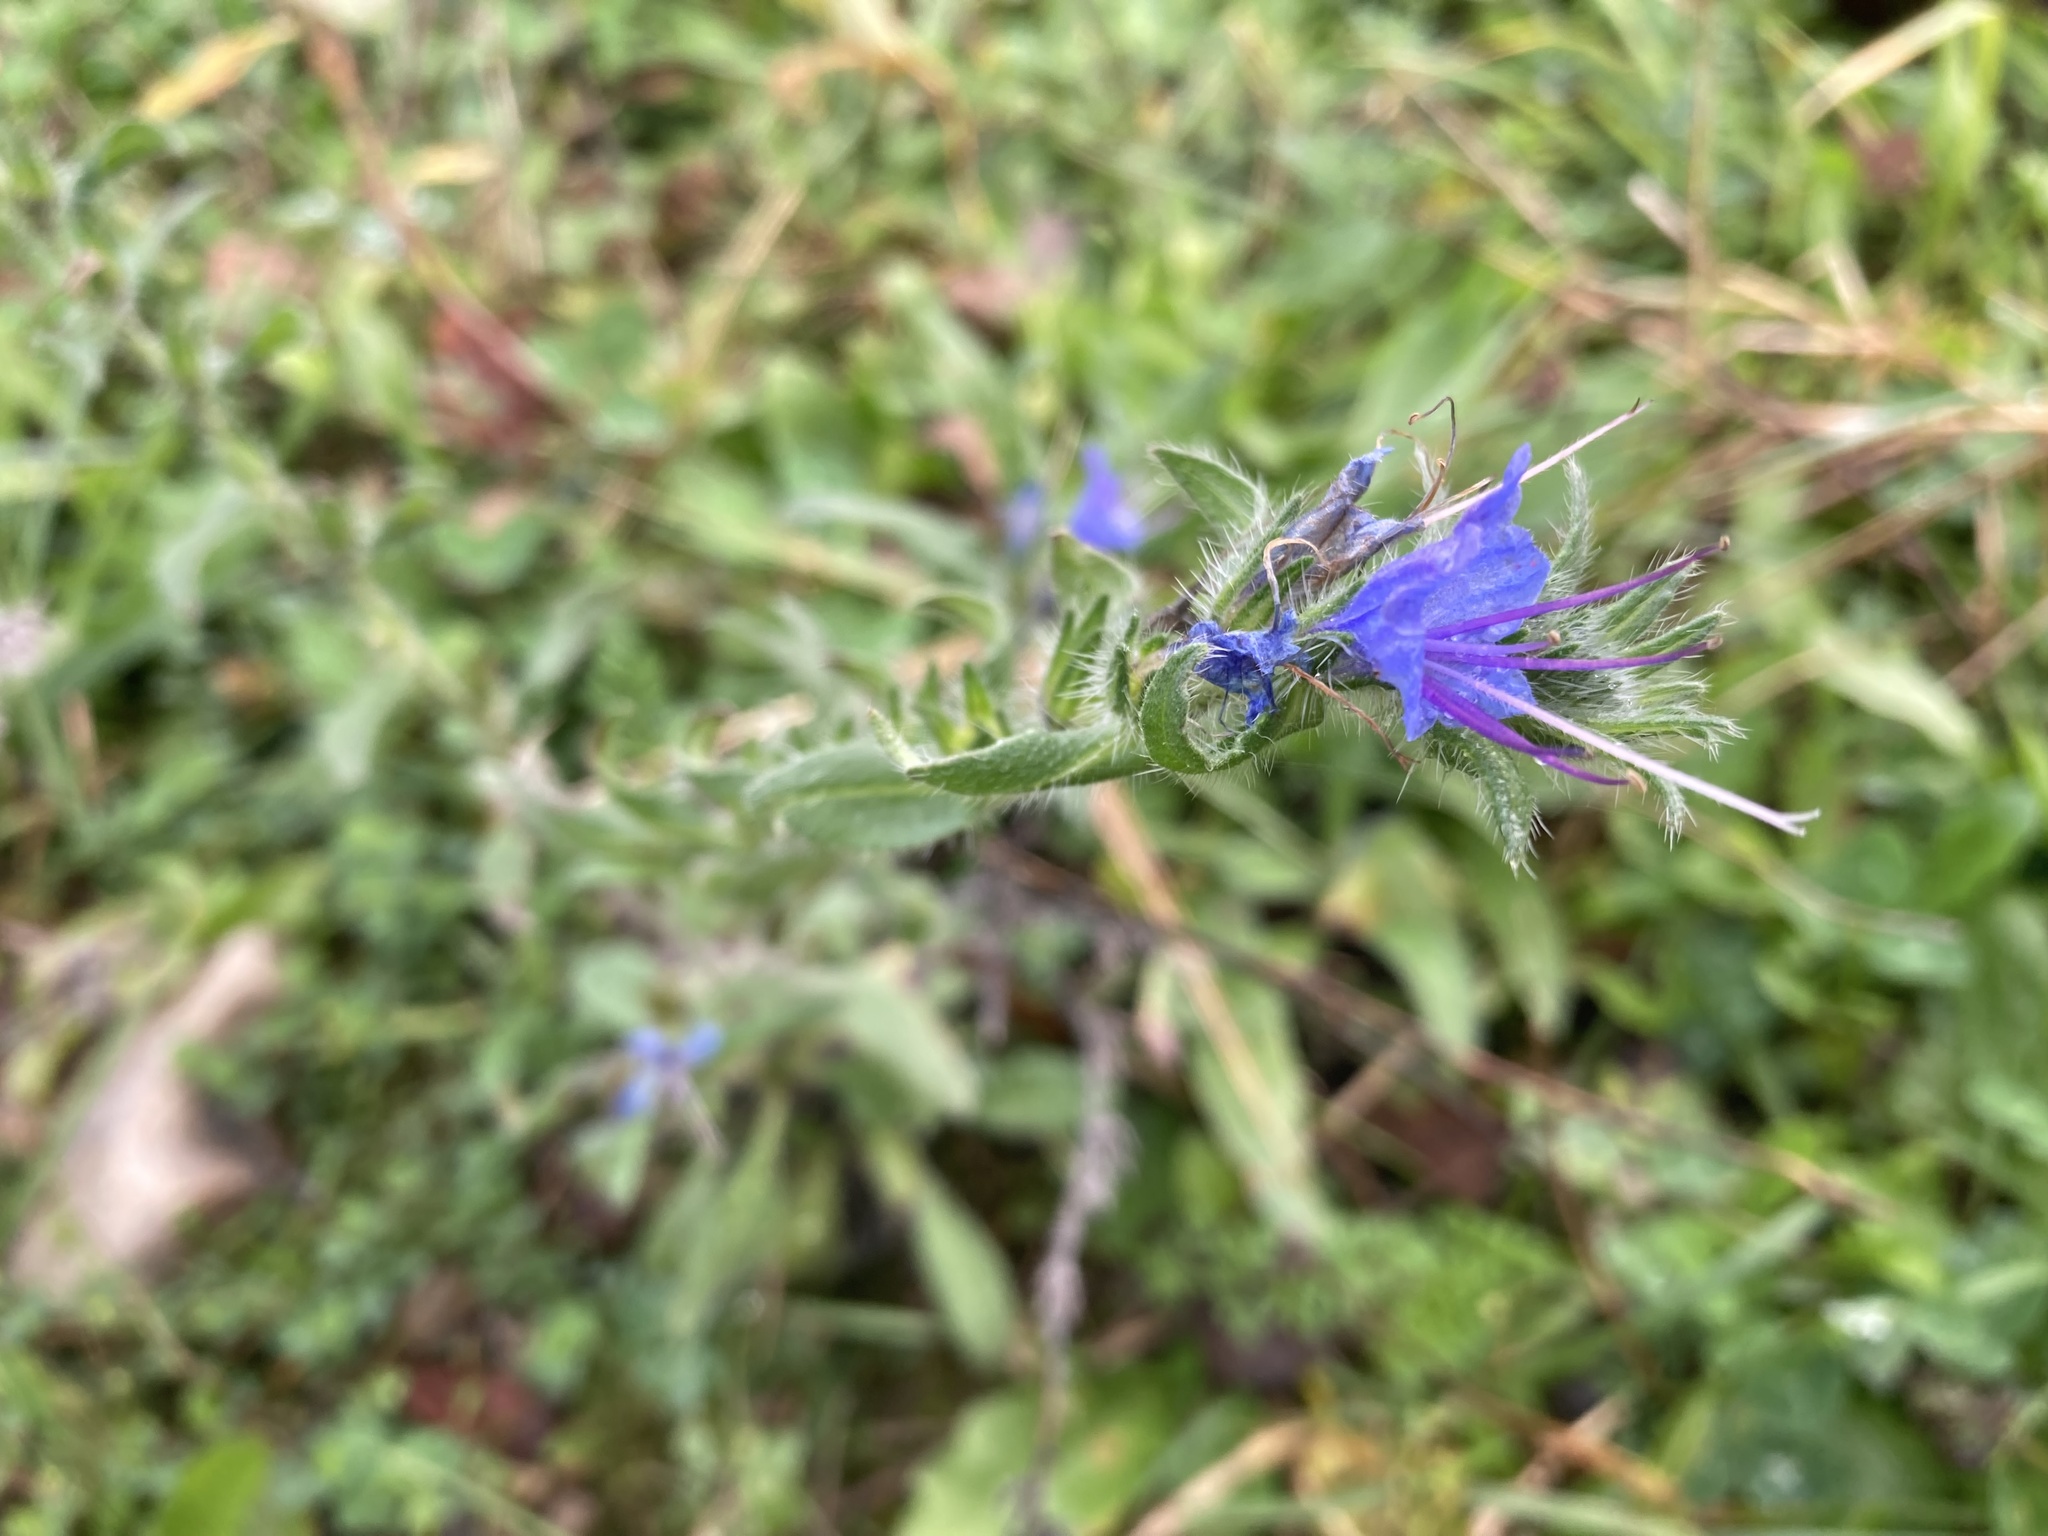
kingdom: Plantae
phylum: Tracheophyta
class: Magnoliopsida
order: Boraginales
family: Boraginaceae
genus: Echium
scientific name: Echium vulgare
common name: Common viper's bugloss
